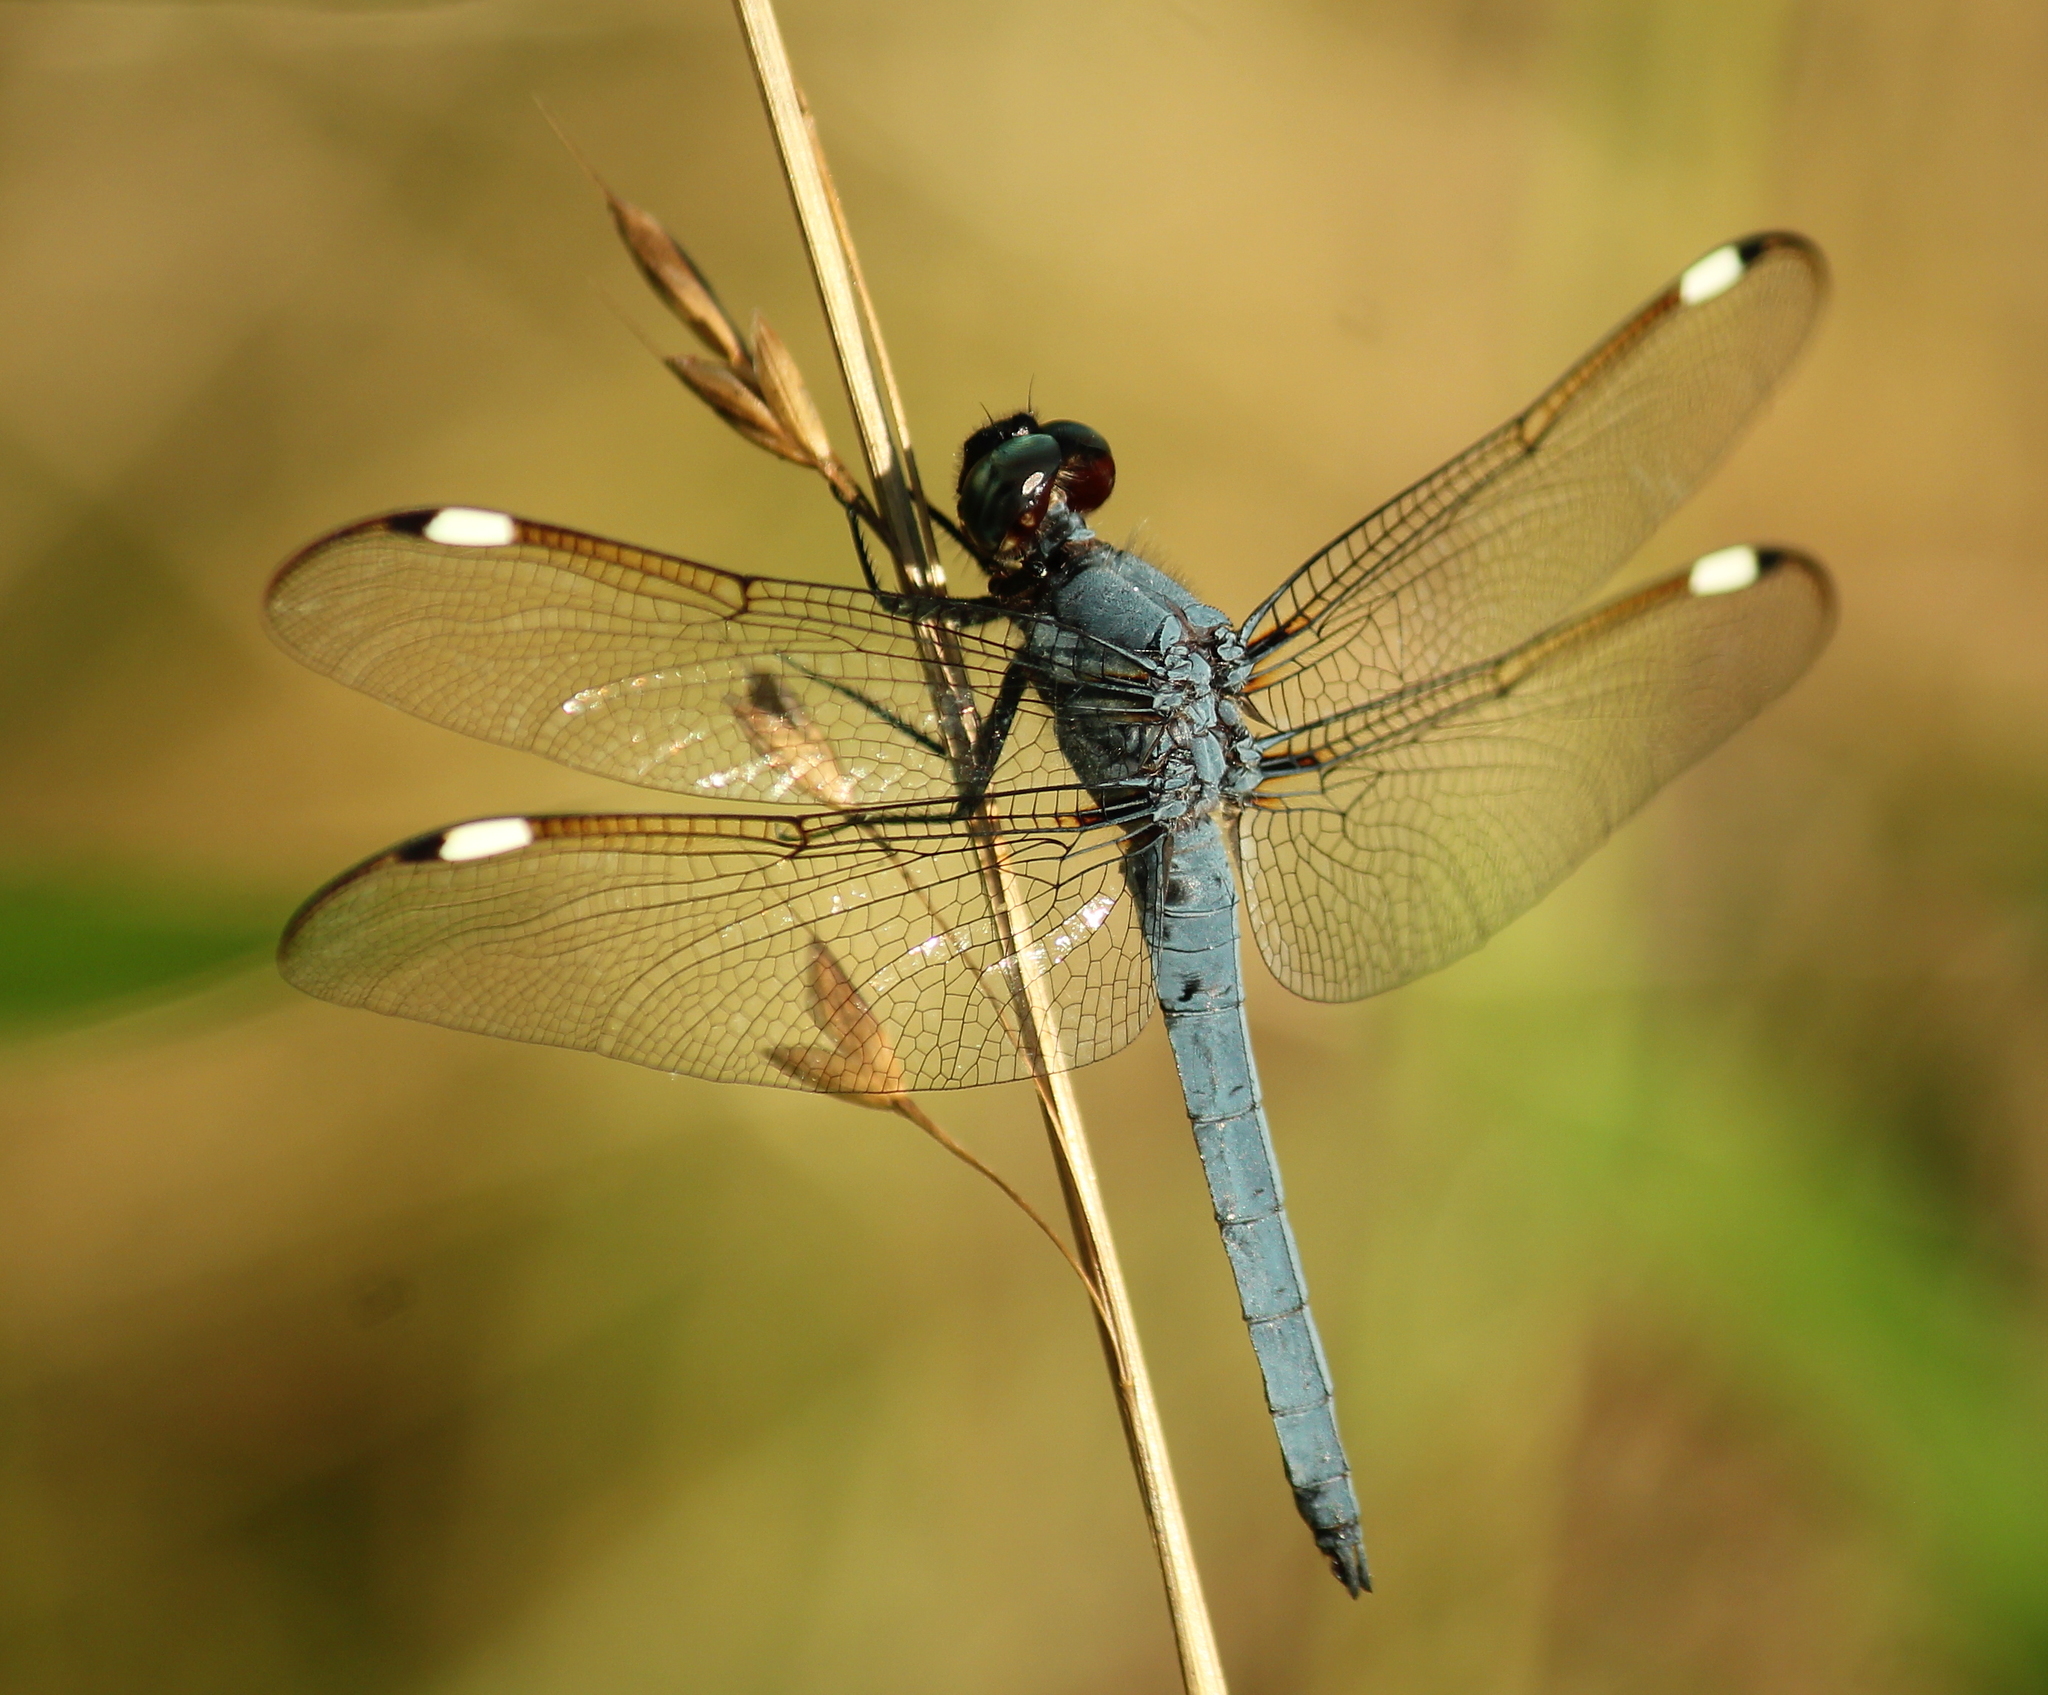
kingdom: Animalia
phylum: Arthropoda
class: Insecta
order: Odonata
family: Libellulidae
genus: Libellula
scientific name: Libellula cyanea
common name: Spangled skimmer
